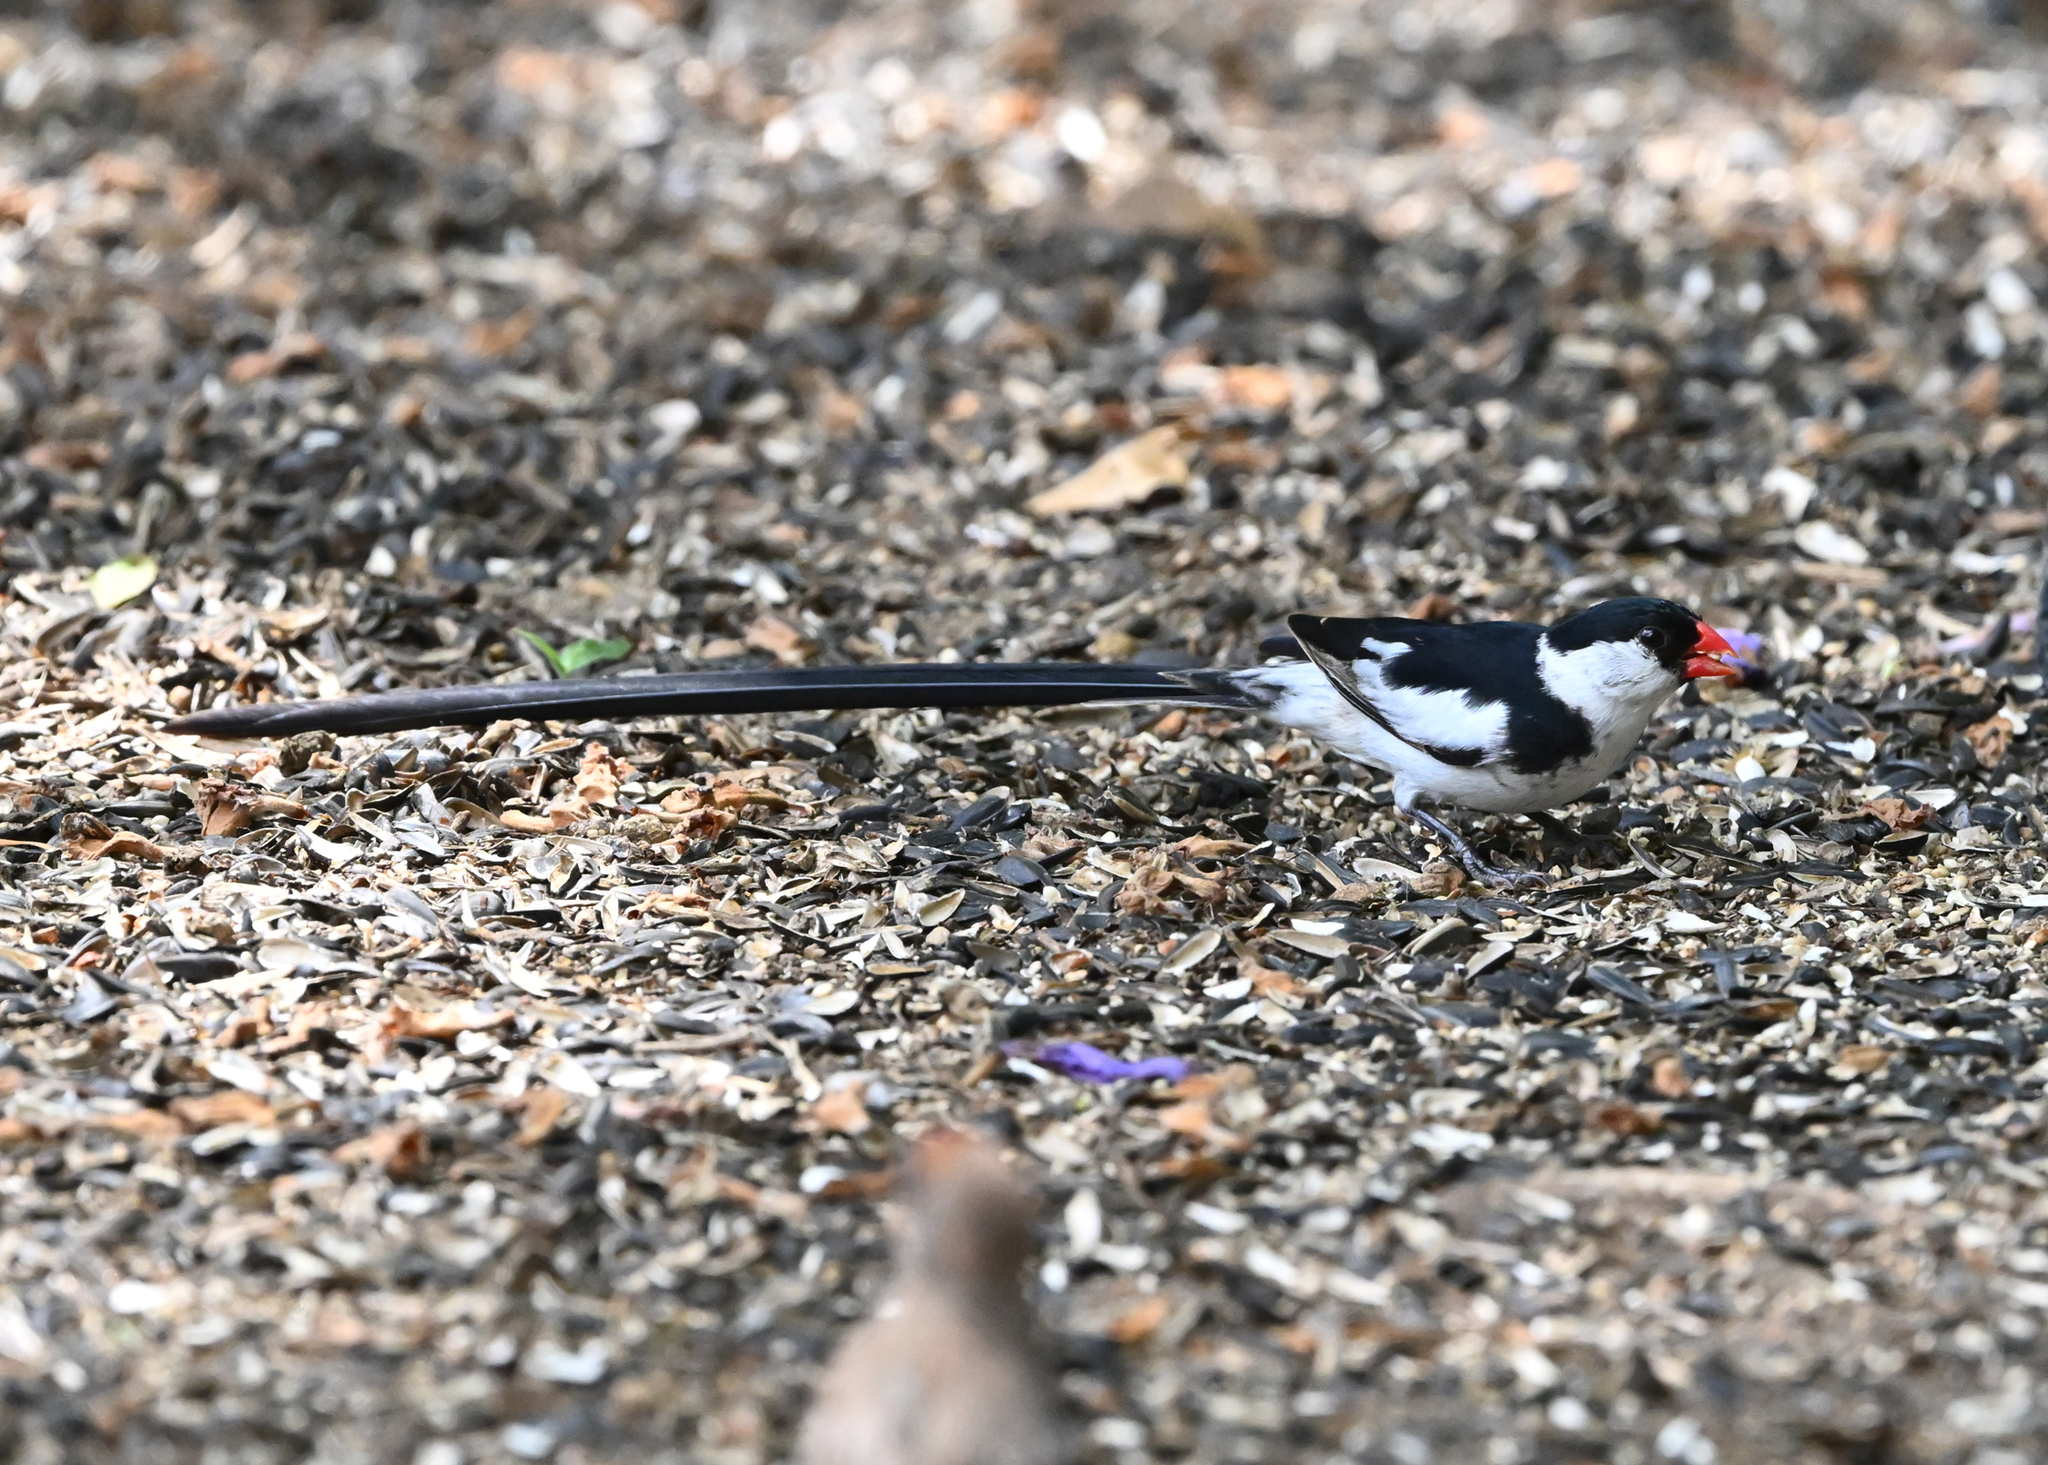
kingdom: Animalia
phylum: Chordata
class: Aves
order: Passeriformes
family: Viduidae
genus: Vidua
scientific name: Vidua macroura
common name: Pin-tailed whydah
